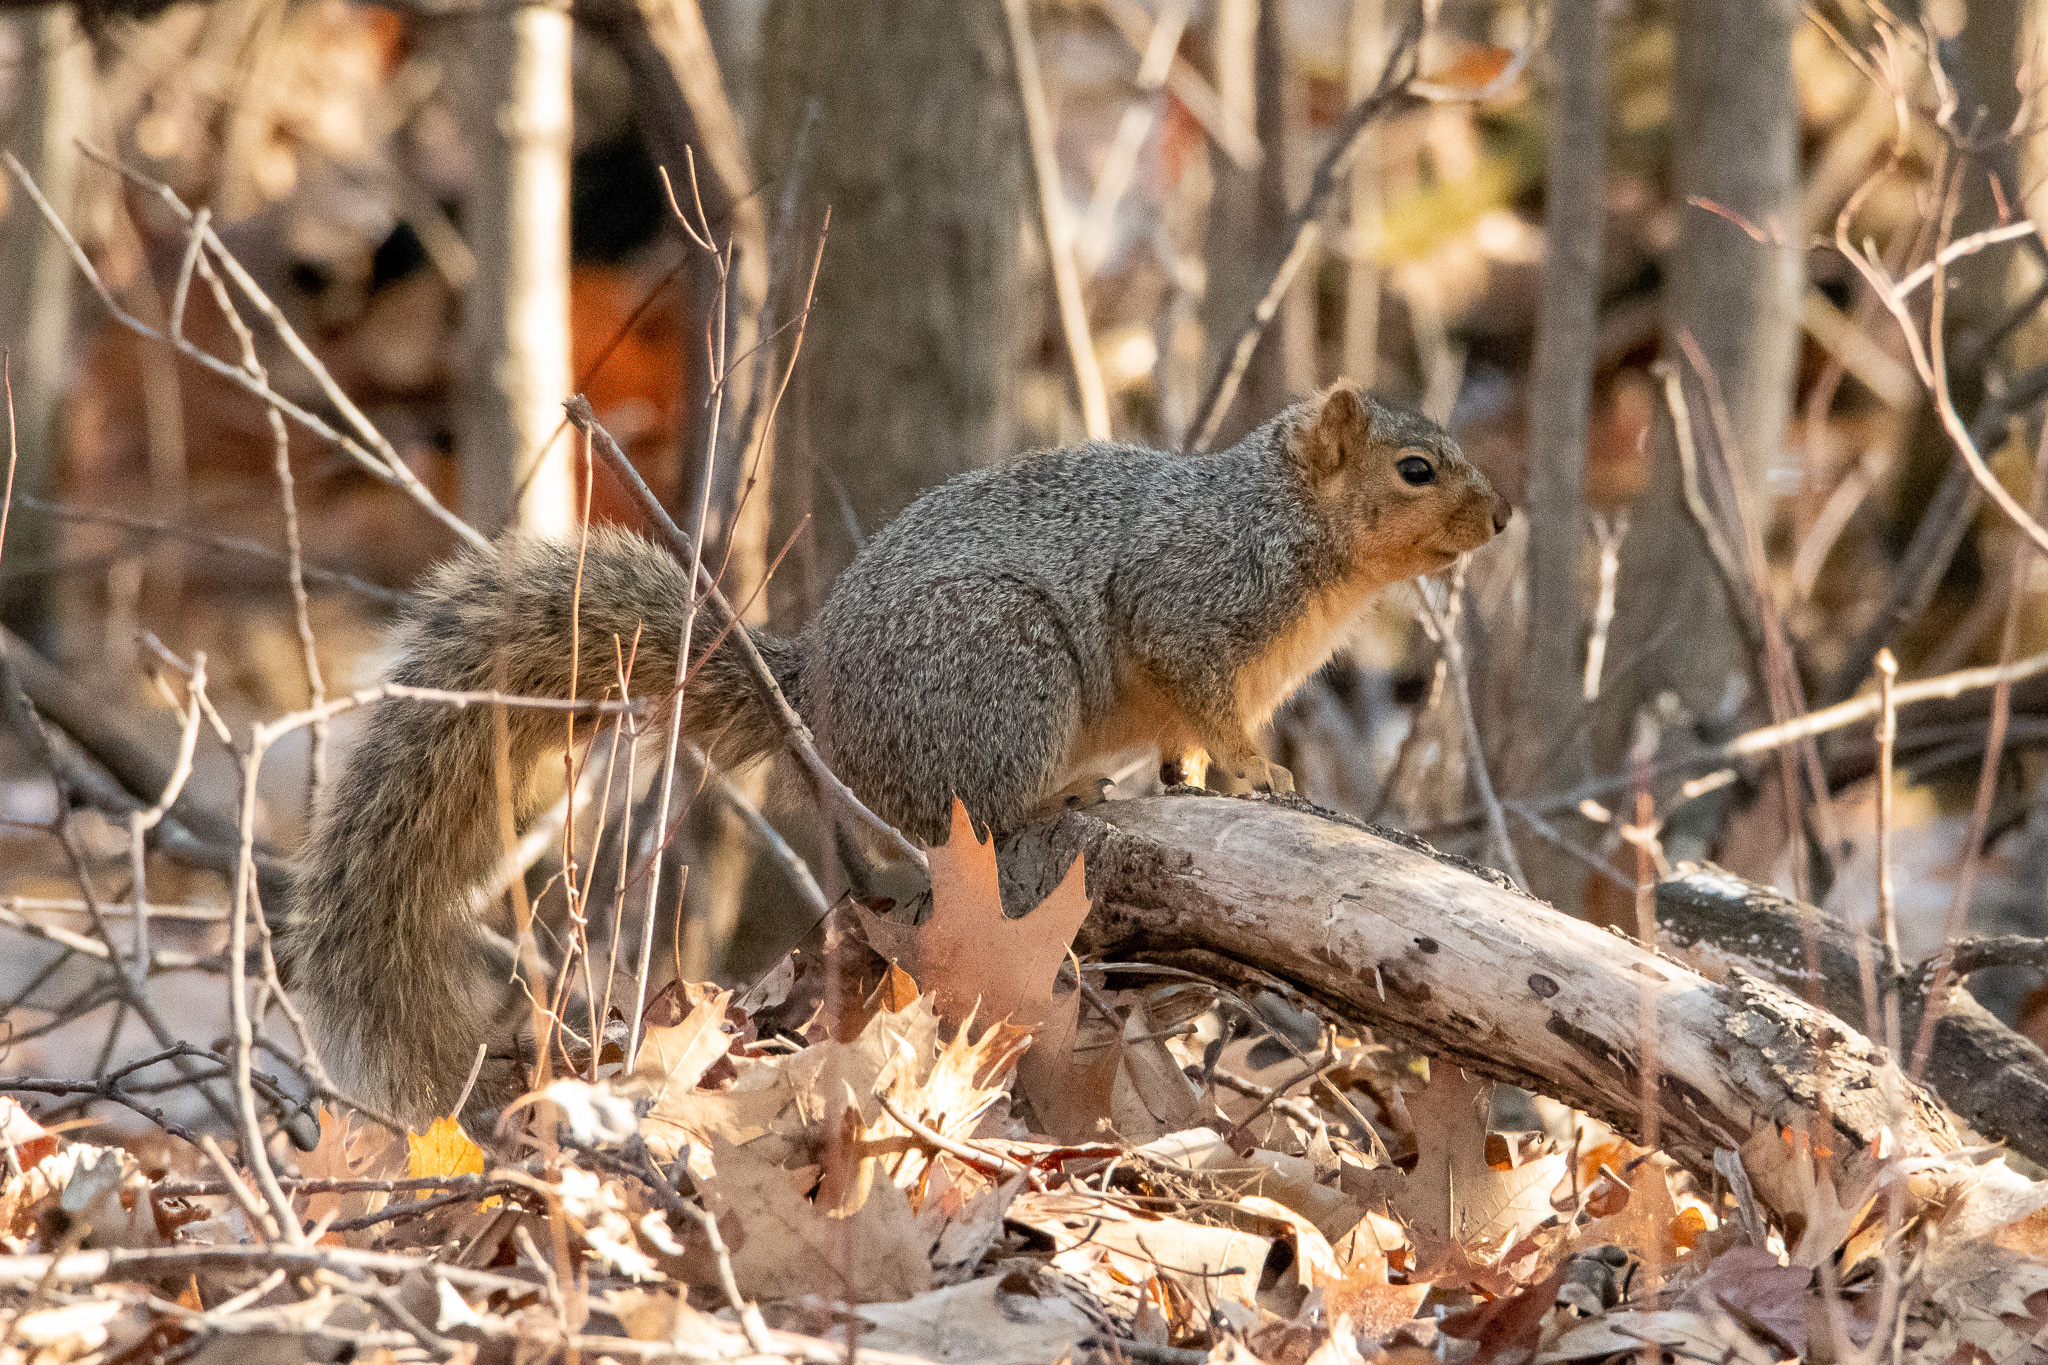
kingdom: Animalia
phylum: Chordata
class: Mammalia
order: Rodentia
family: Sciuridae
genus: Sciurus
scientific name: Sciurus niger
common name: Fox squirrel
